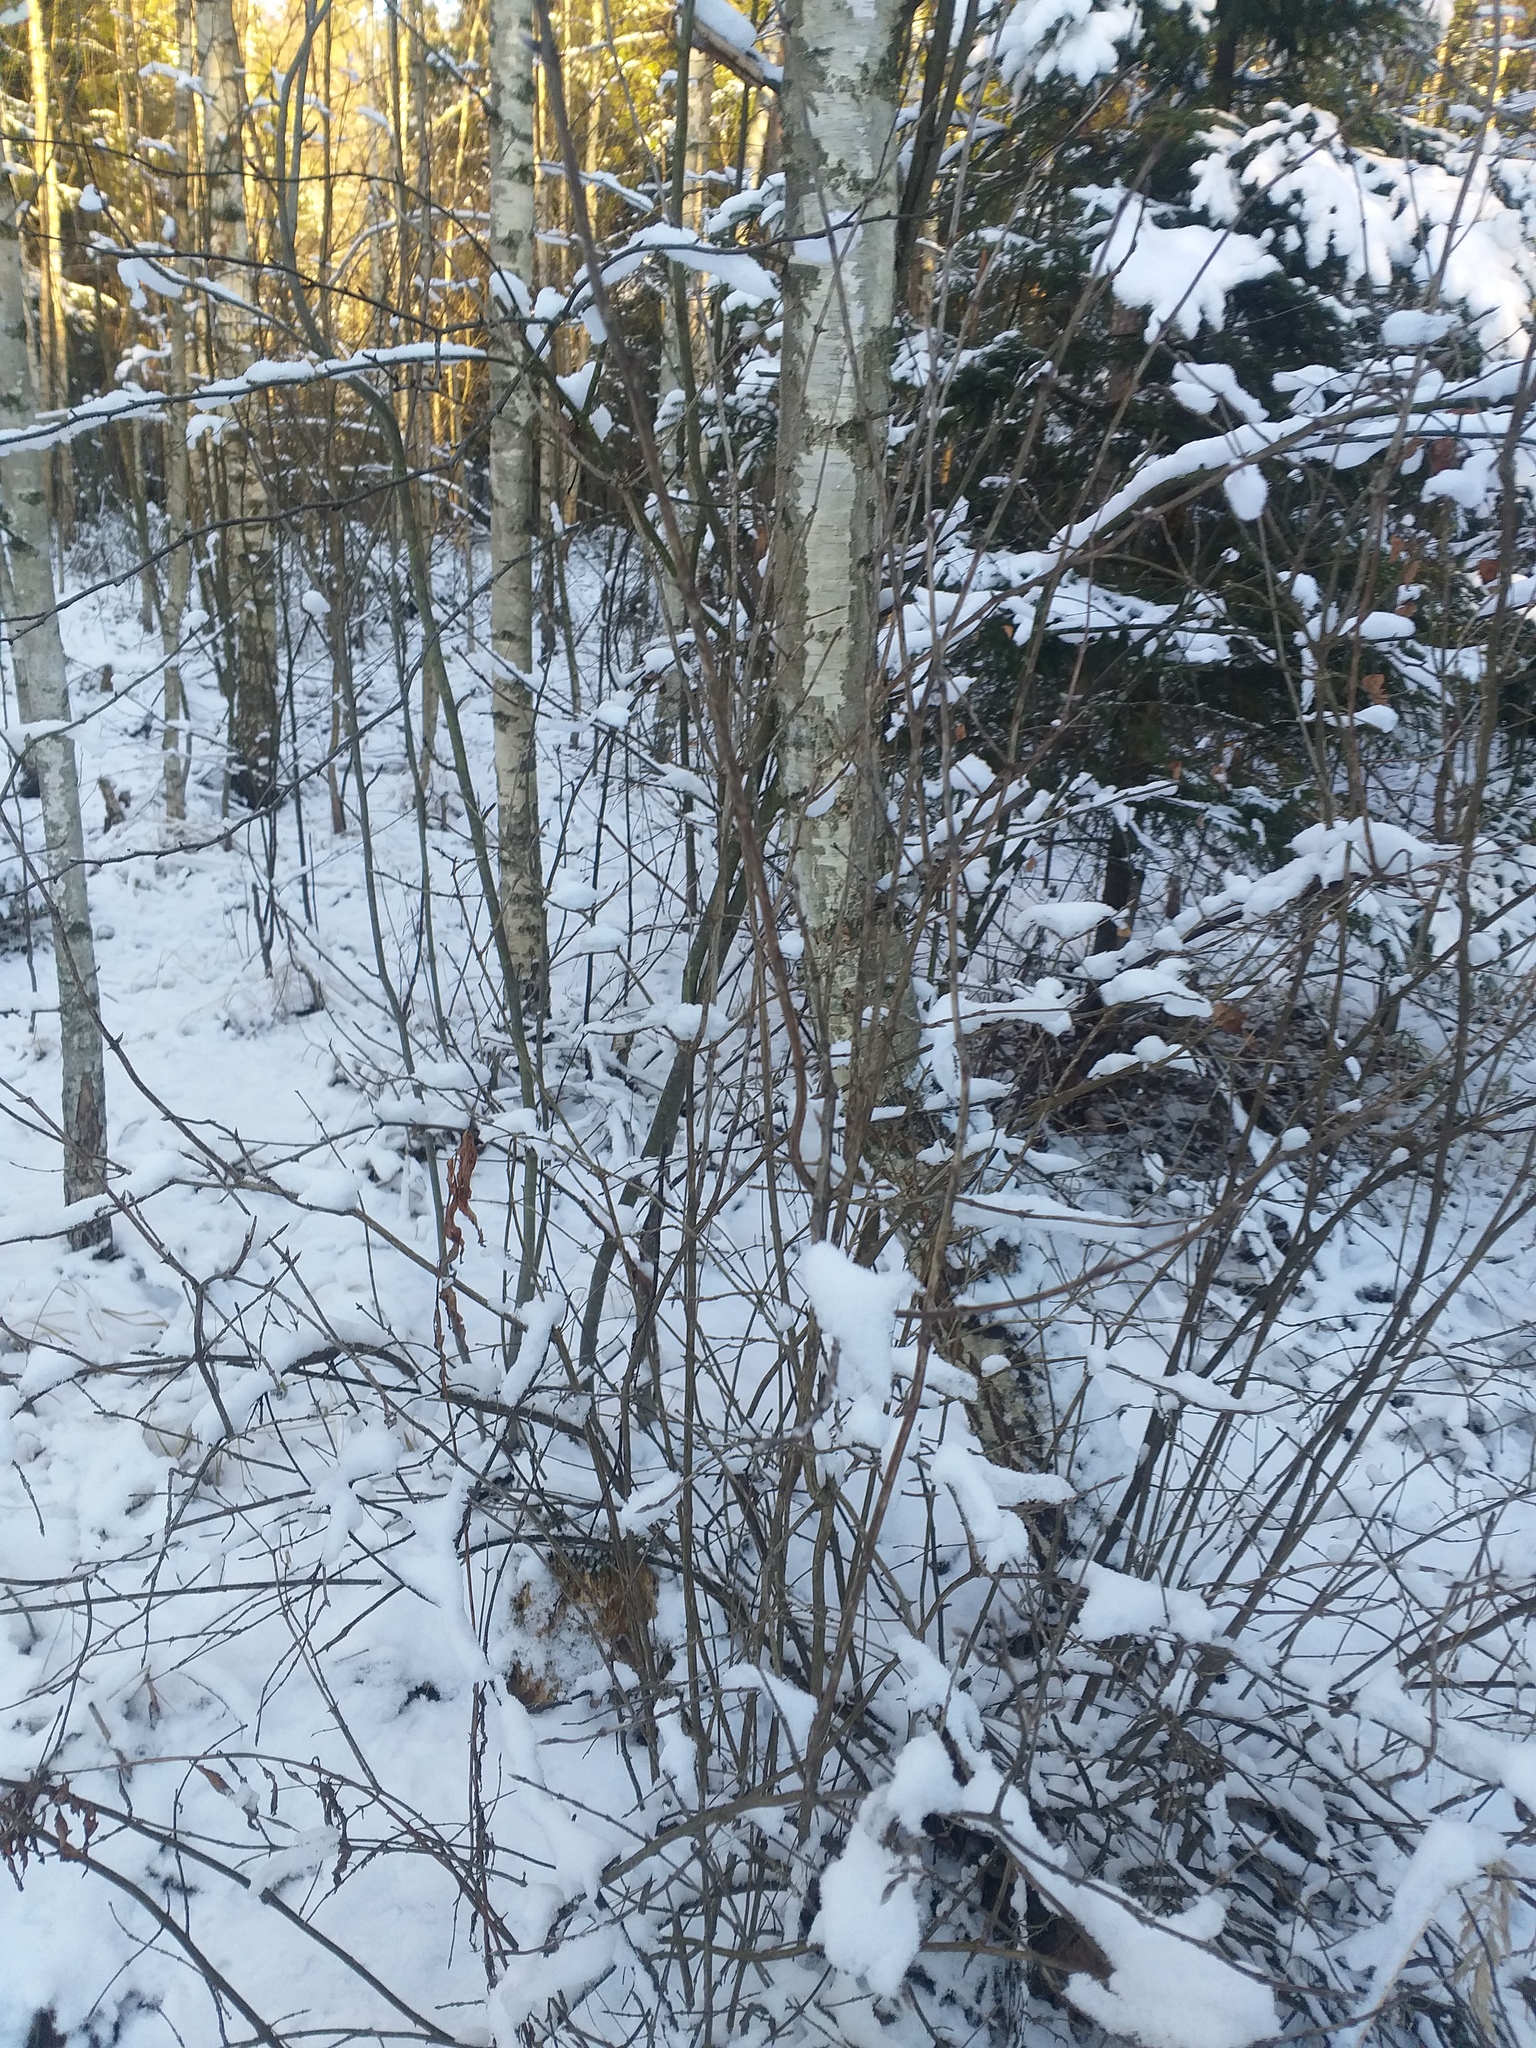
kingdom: Plantae
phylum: Tracheophyta
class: Magnoliopsida
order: Dipsacales
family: Caprifoliaceae
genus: Lonicera
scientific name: Lonicera xylosteum
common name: Fly honeysuckle
